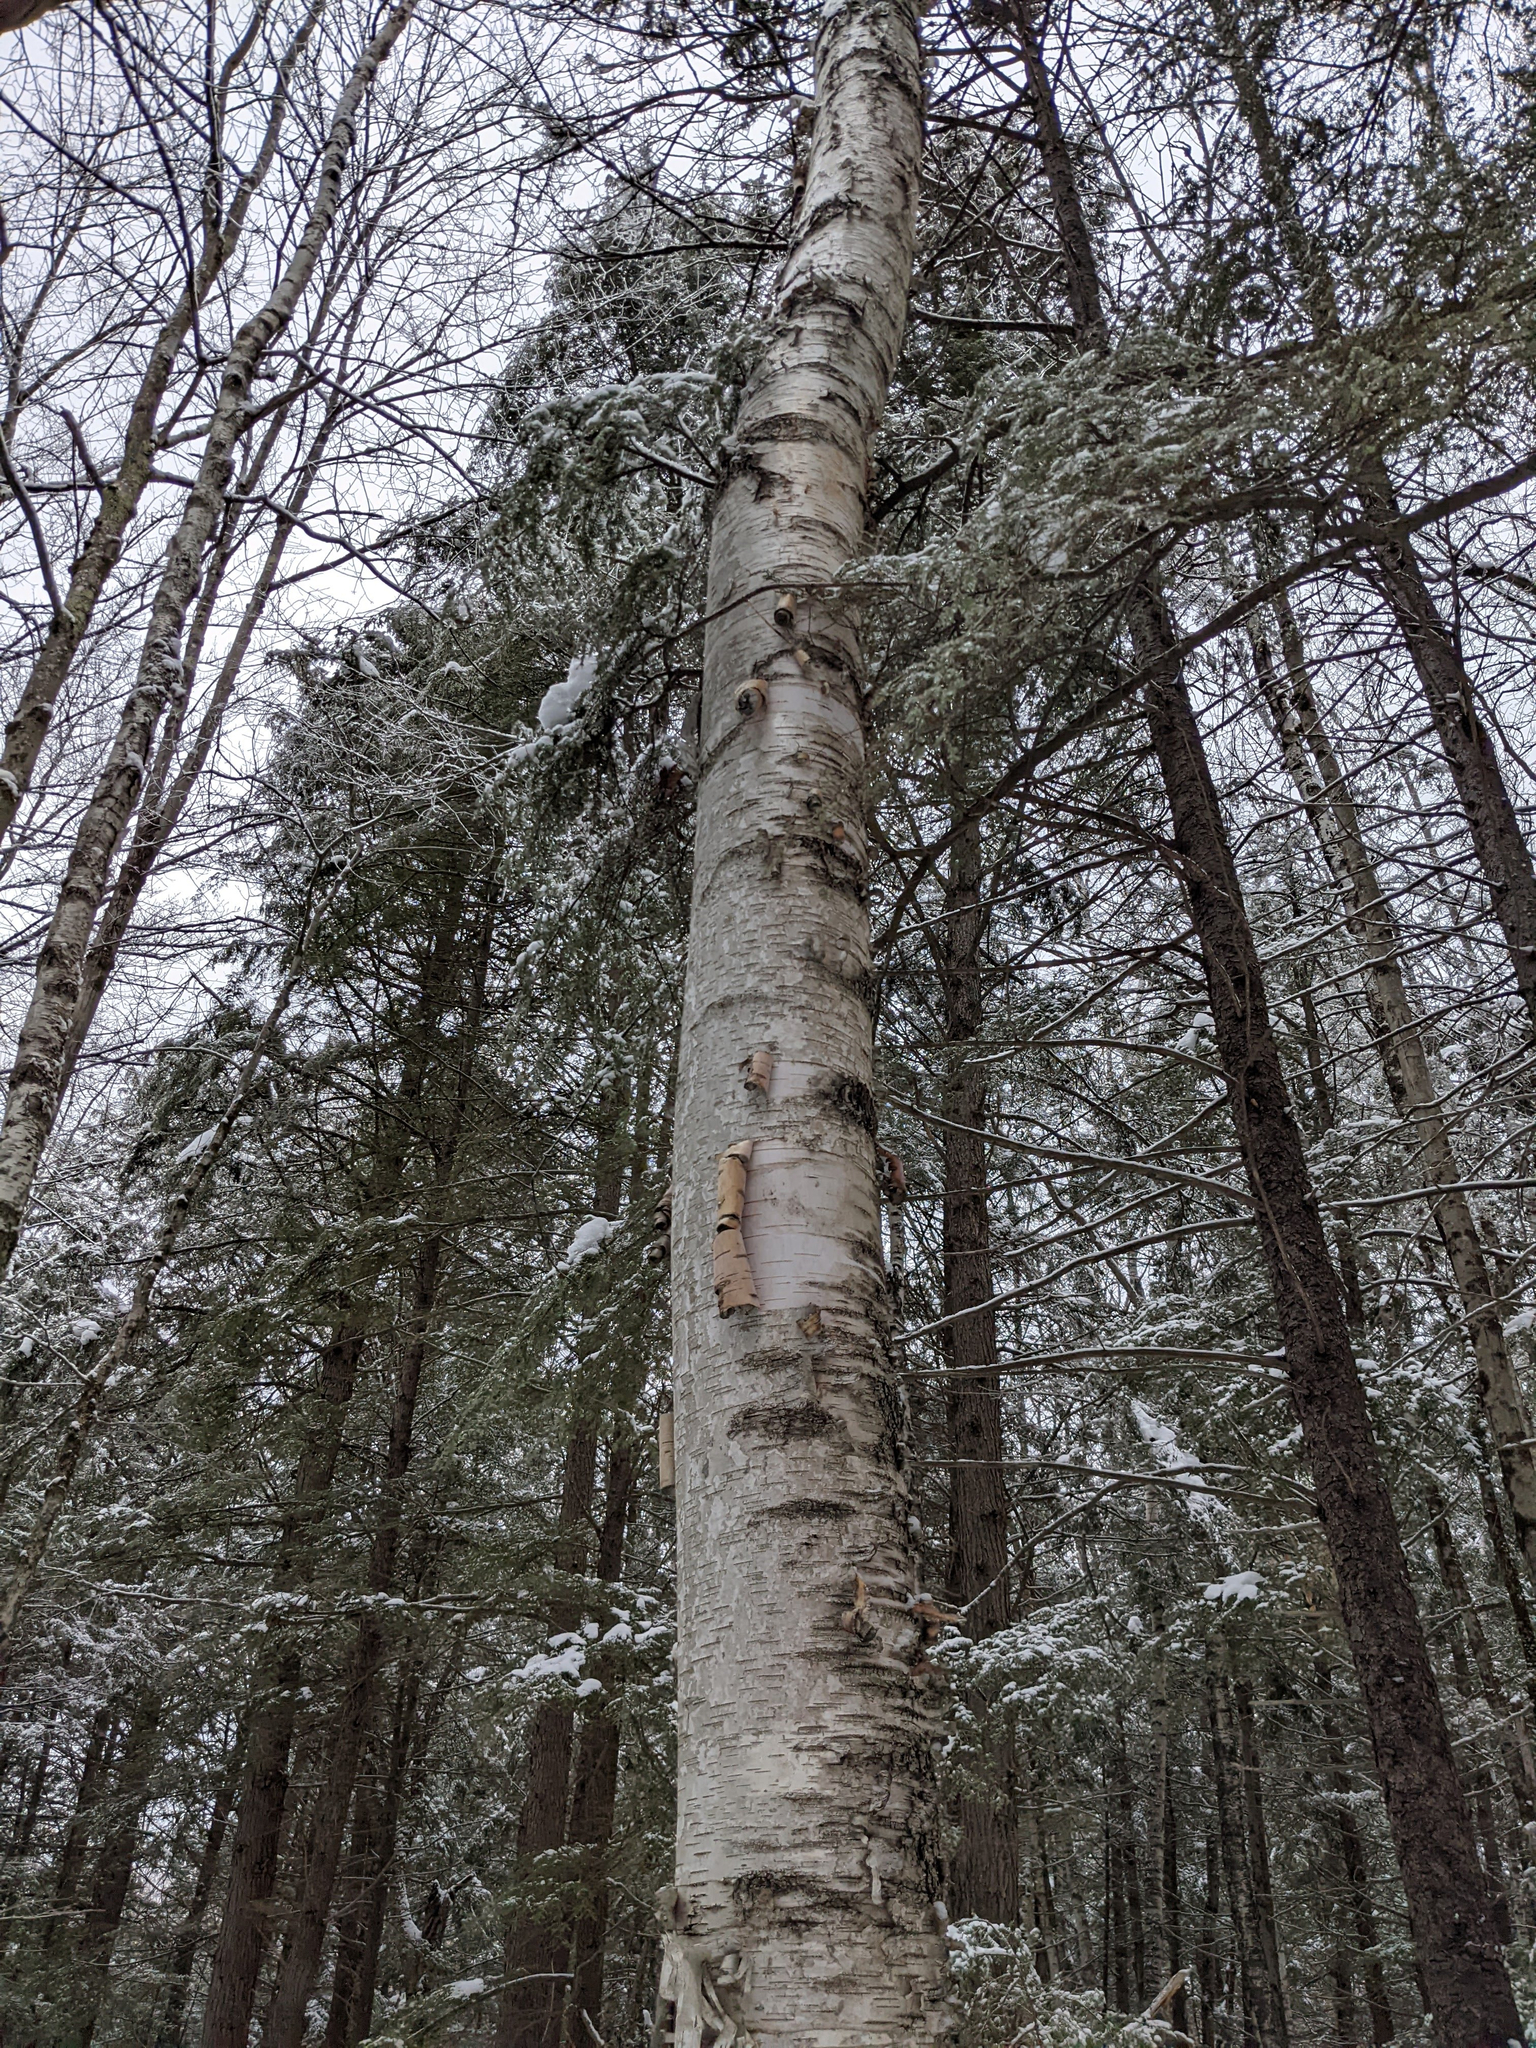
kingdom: Plantae
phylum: Tracheophyta
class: Magnoliopsida
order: Fagales
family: Betulaceae
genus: Betula
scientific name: Betula papyrifera
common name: Paper birch
